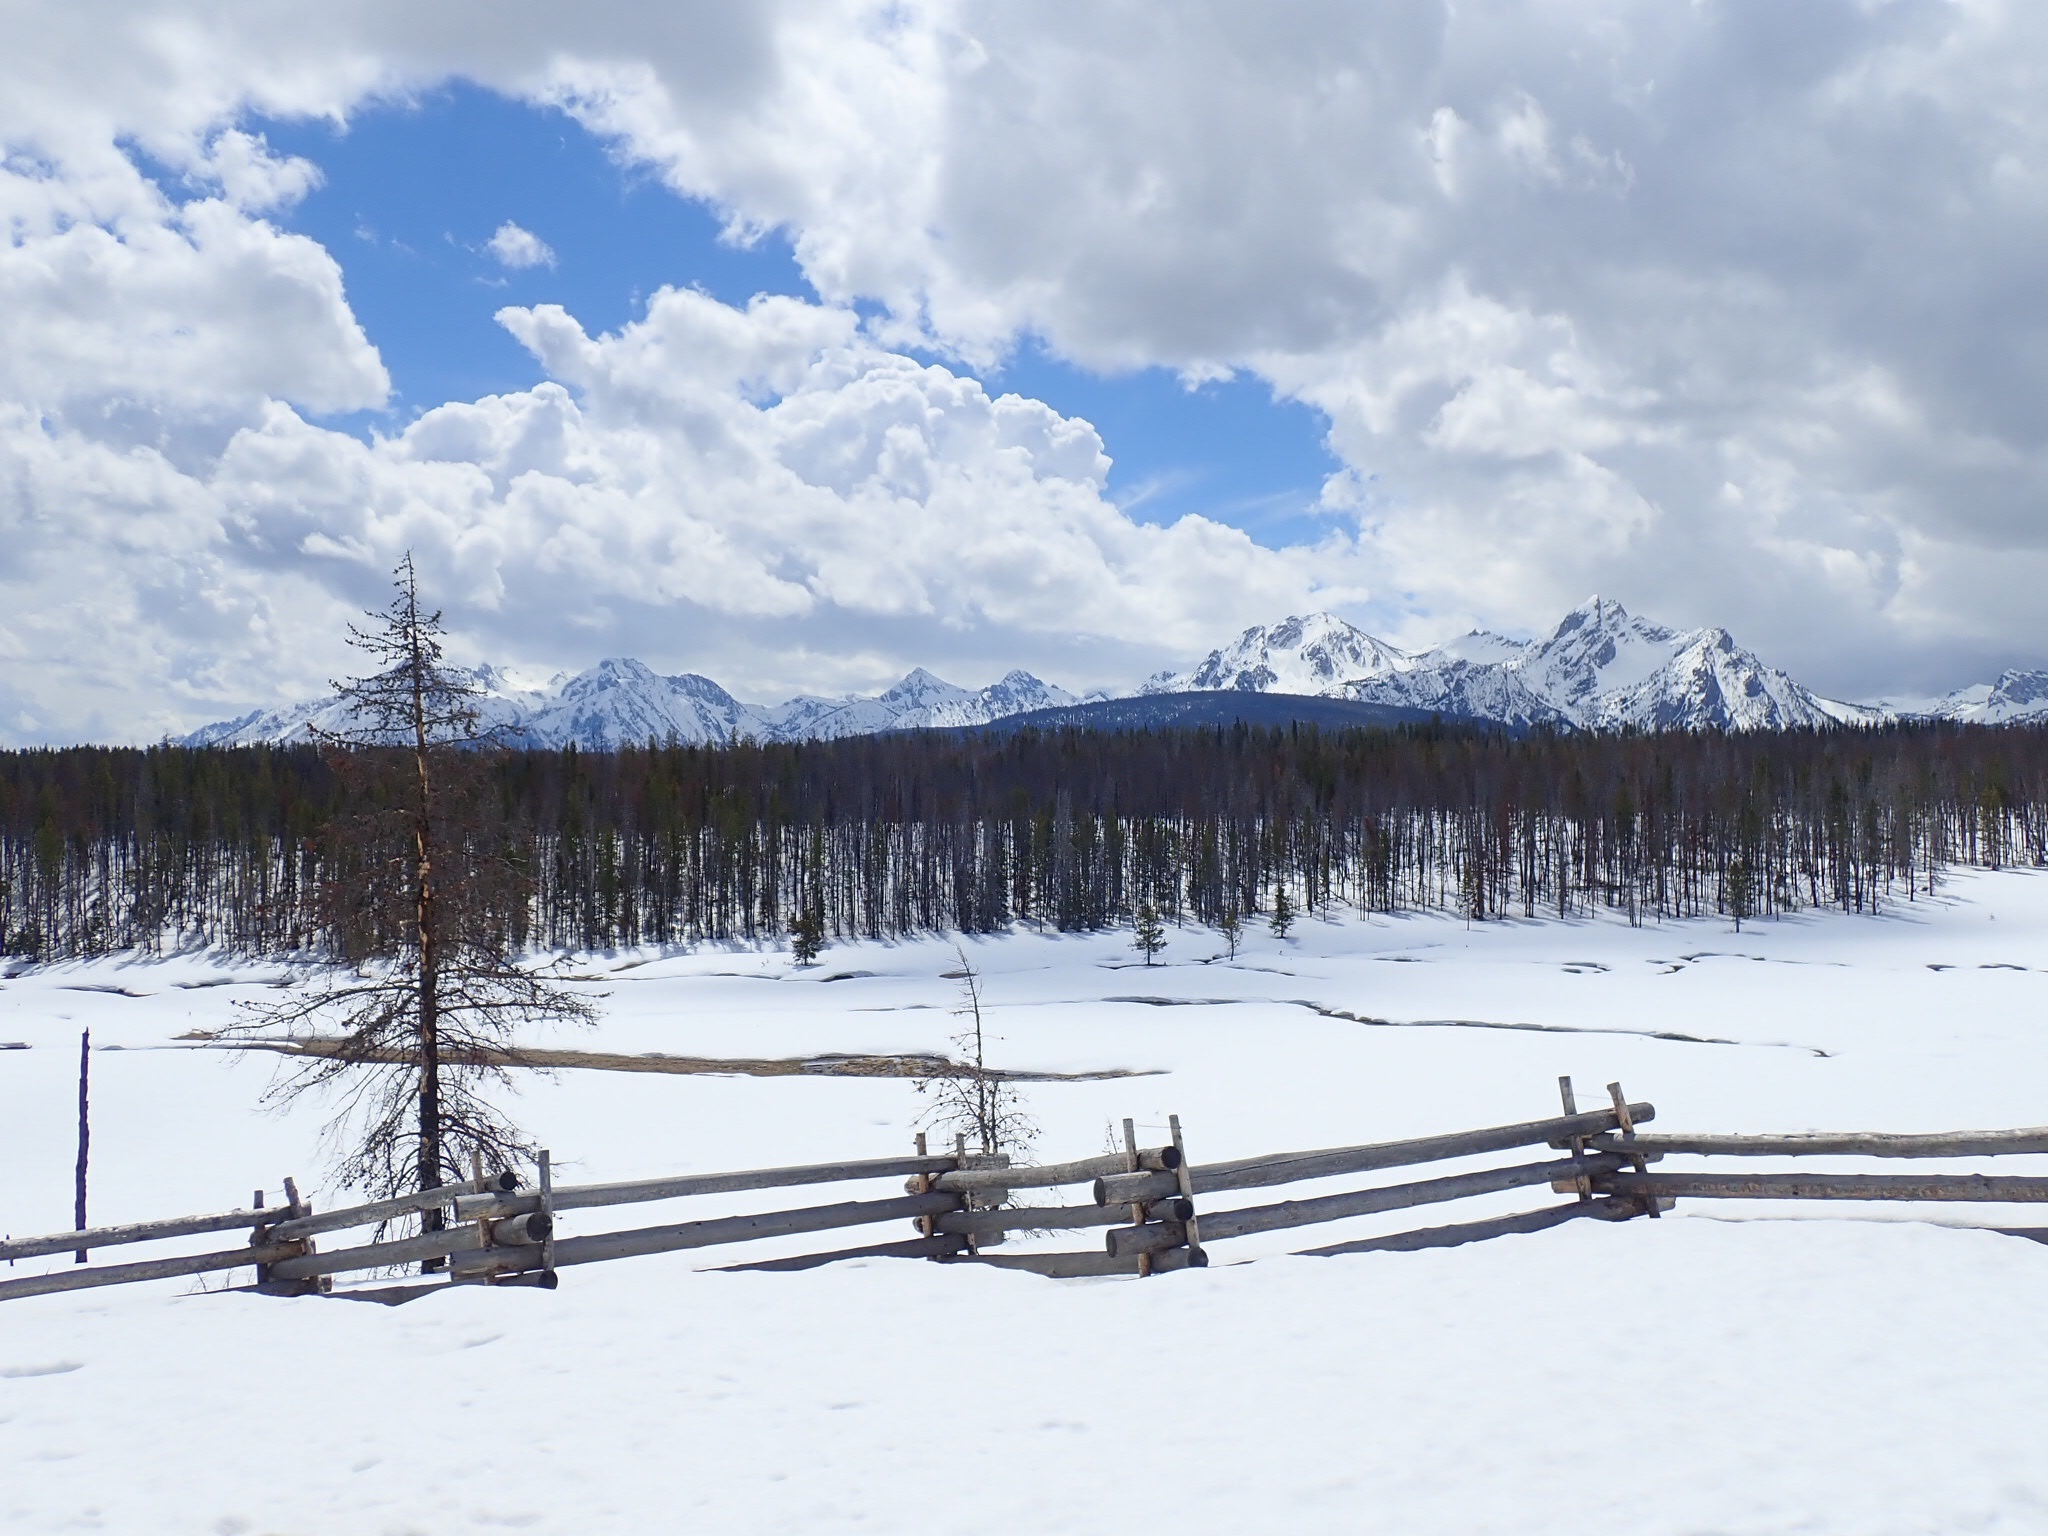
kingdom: Animalia
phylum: Arthropoda
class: Insecta
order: Lepidoptera
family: Nymphalidae
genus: Nymphalis
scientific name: Nymphalis californica
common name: California tortoiseshell
